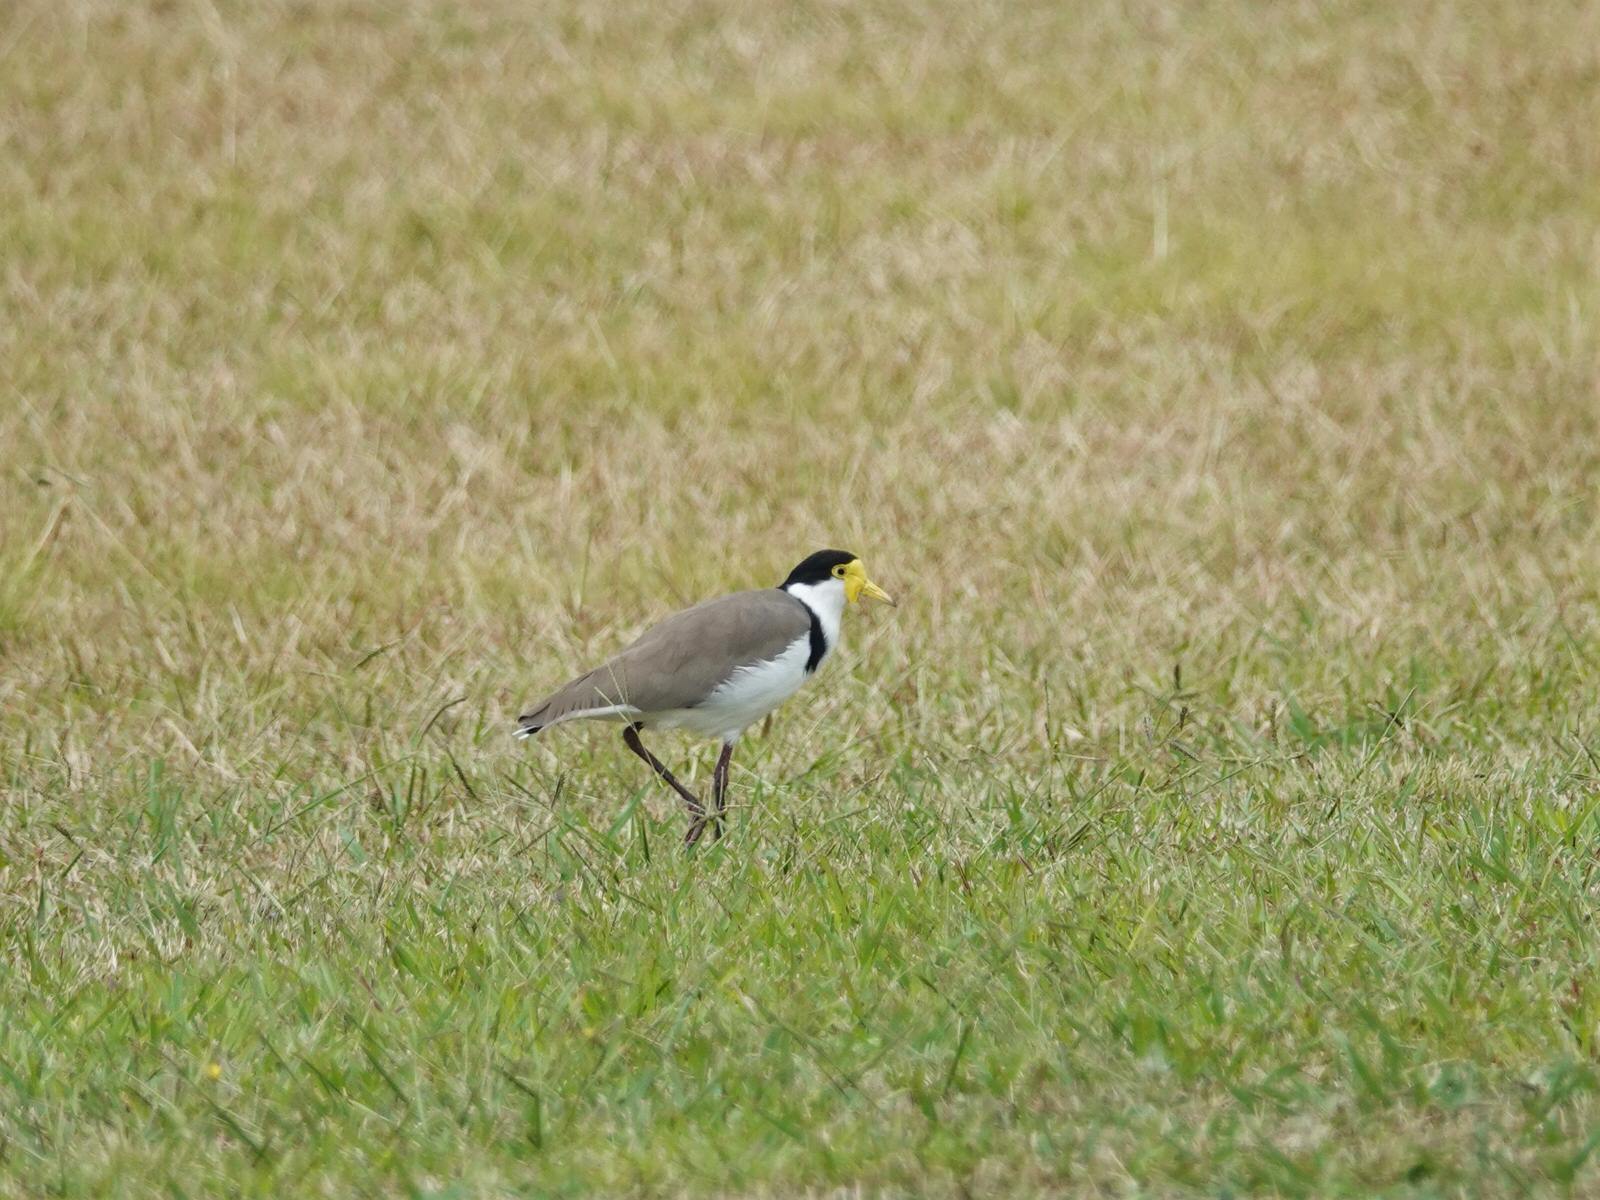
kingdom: Animalia
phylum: Chordata
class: Aves
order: Charadriiformes
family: Charadriidae
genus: Vanellus
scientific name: Vanellus miles
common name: Masked lapwing
